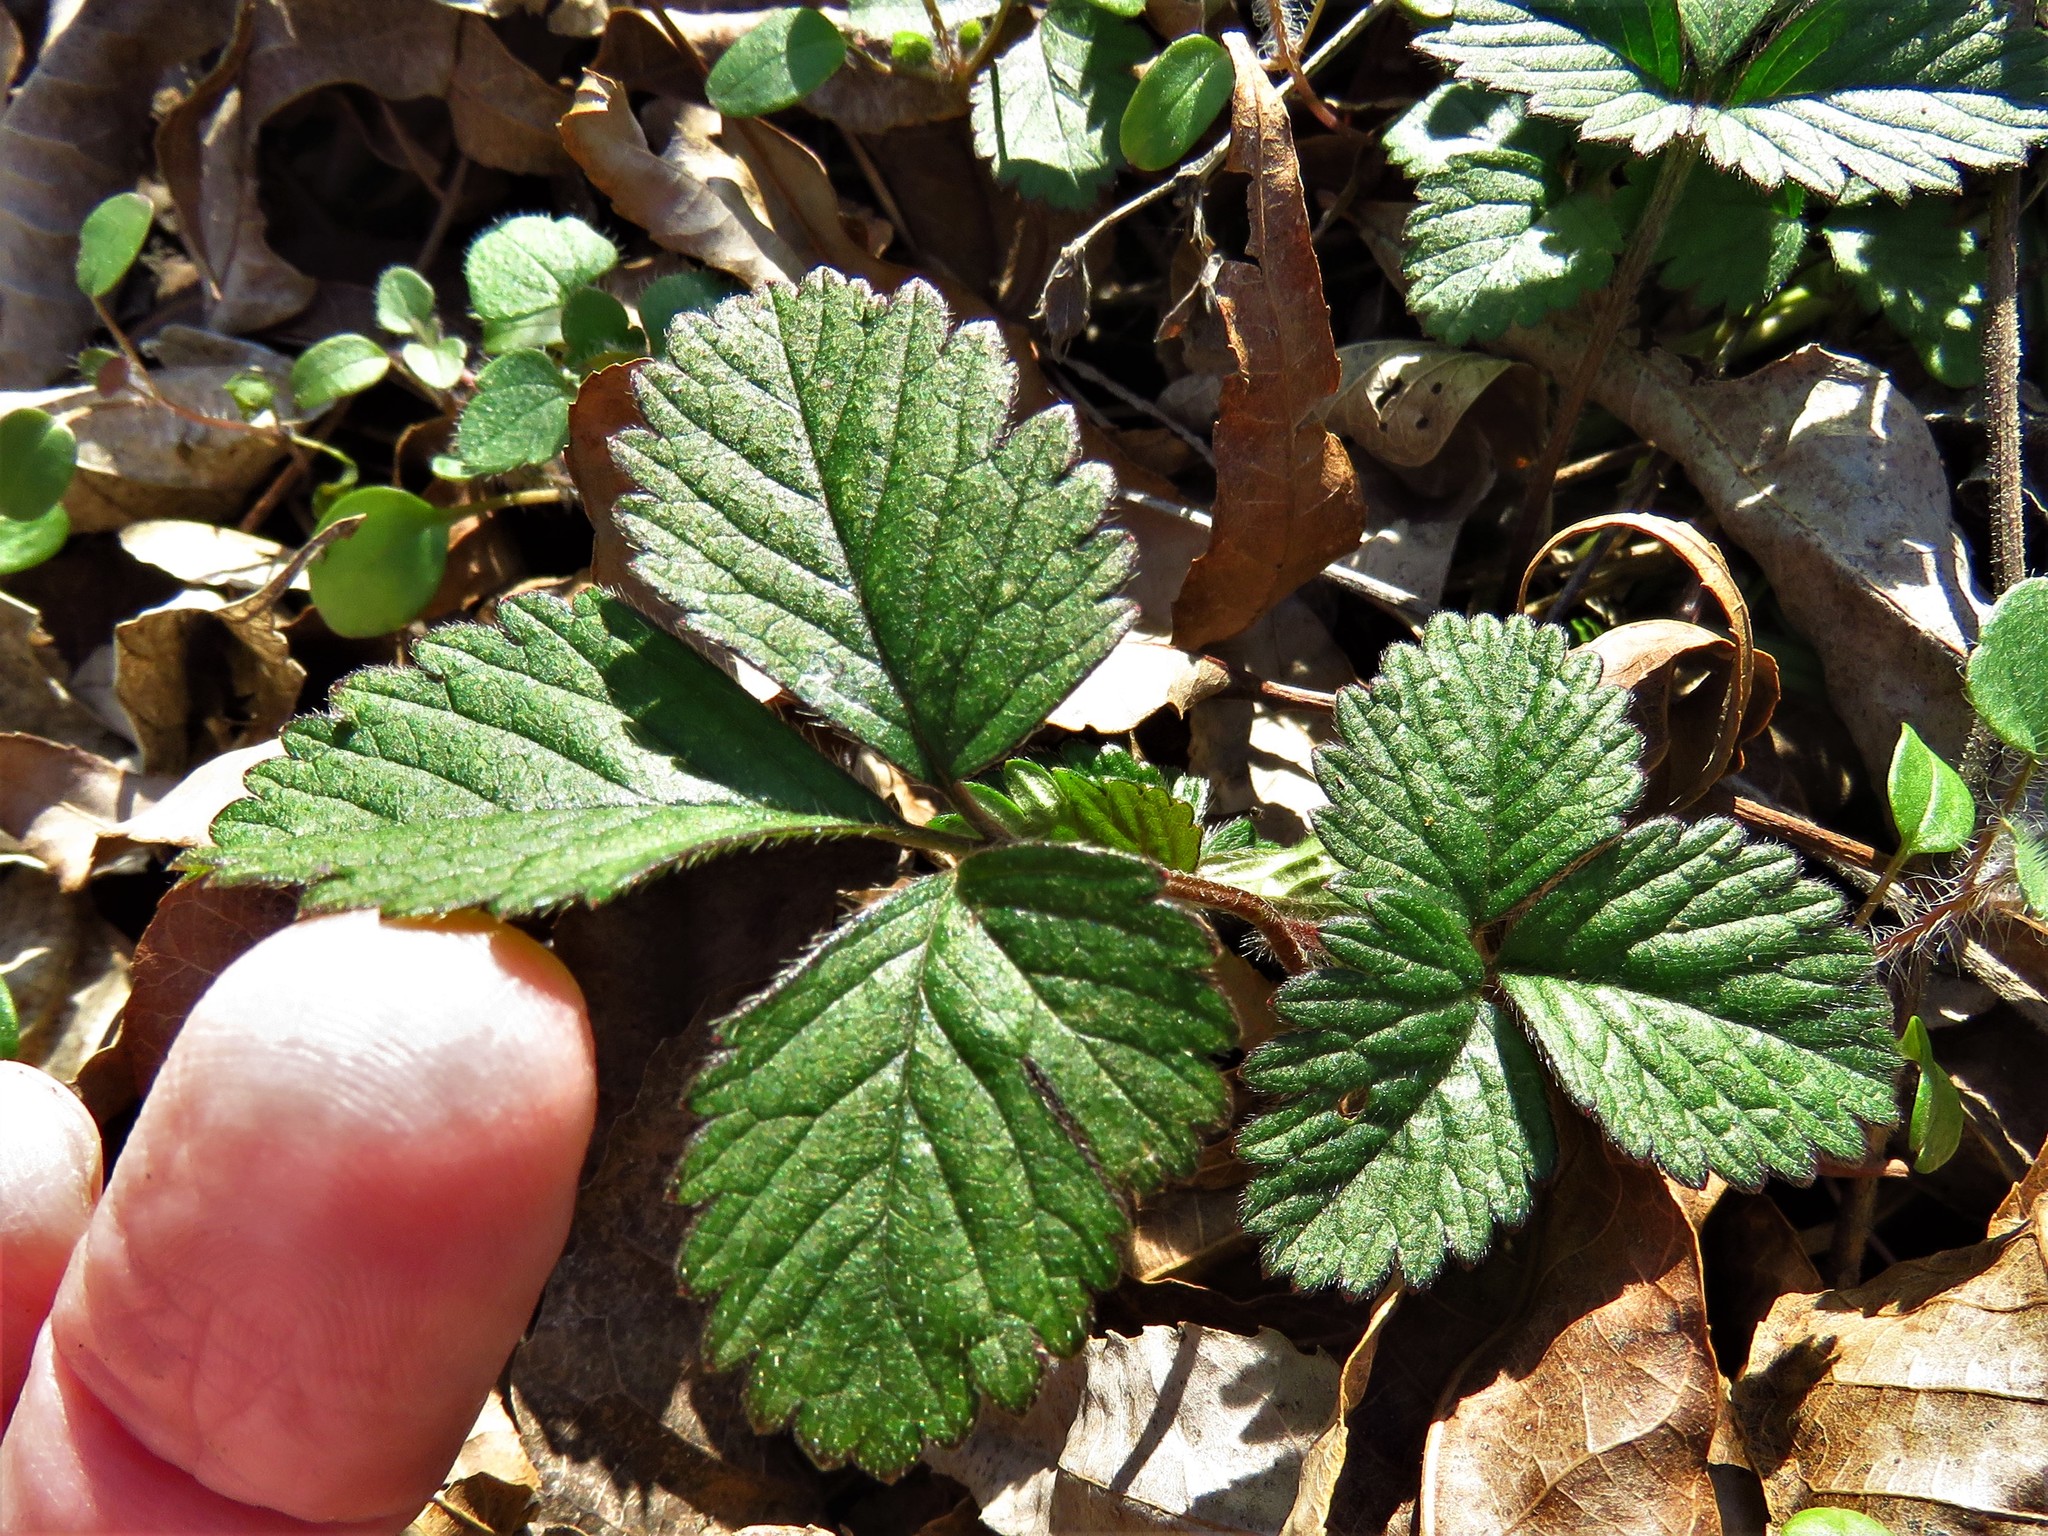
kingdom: Plantae
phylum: Tracheophyta
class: Magnoliopsida
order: Rosales
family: Rosaceae
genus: Potentilla
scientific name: Potentilla indica
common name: Yellow-flowered strawberry
